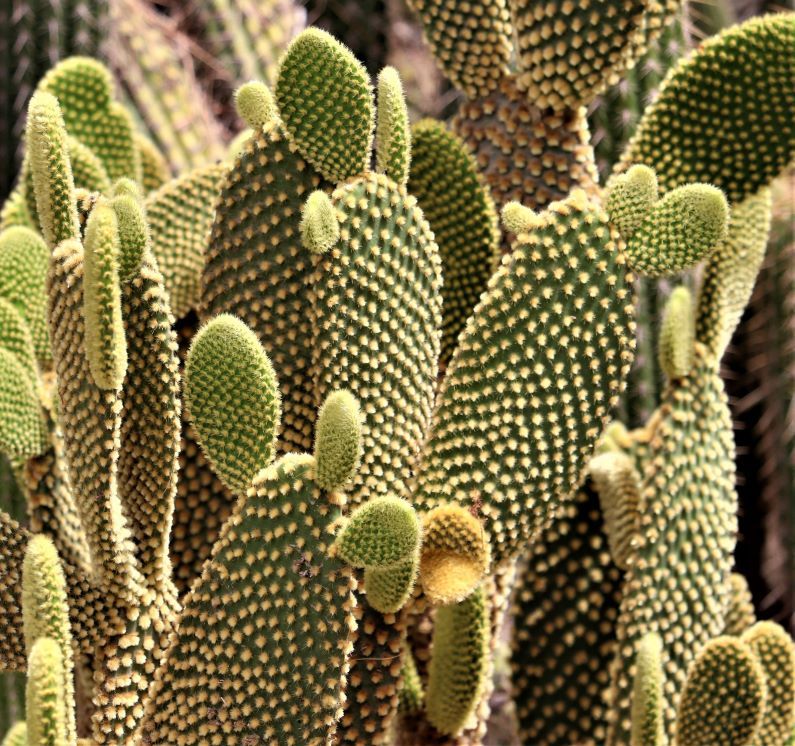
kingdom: Plantae
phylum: Tracheophyta
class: Magnoliopsida
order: Caryophyllales
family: Cactaceae
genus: Opuntia
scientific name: Opuntia microdasys
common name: Angel's-wings
